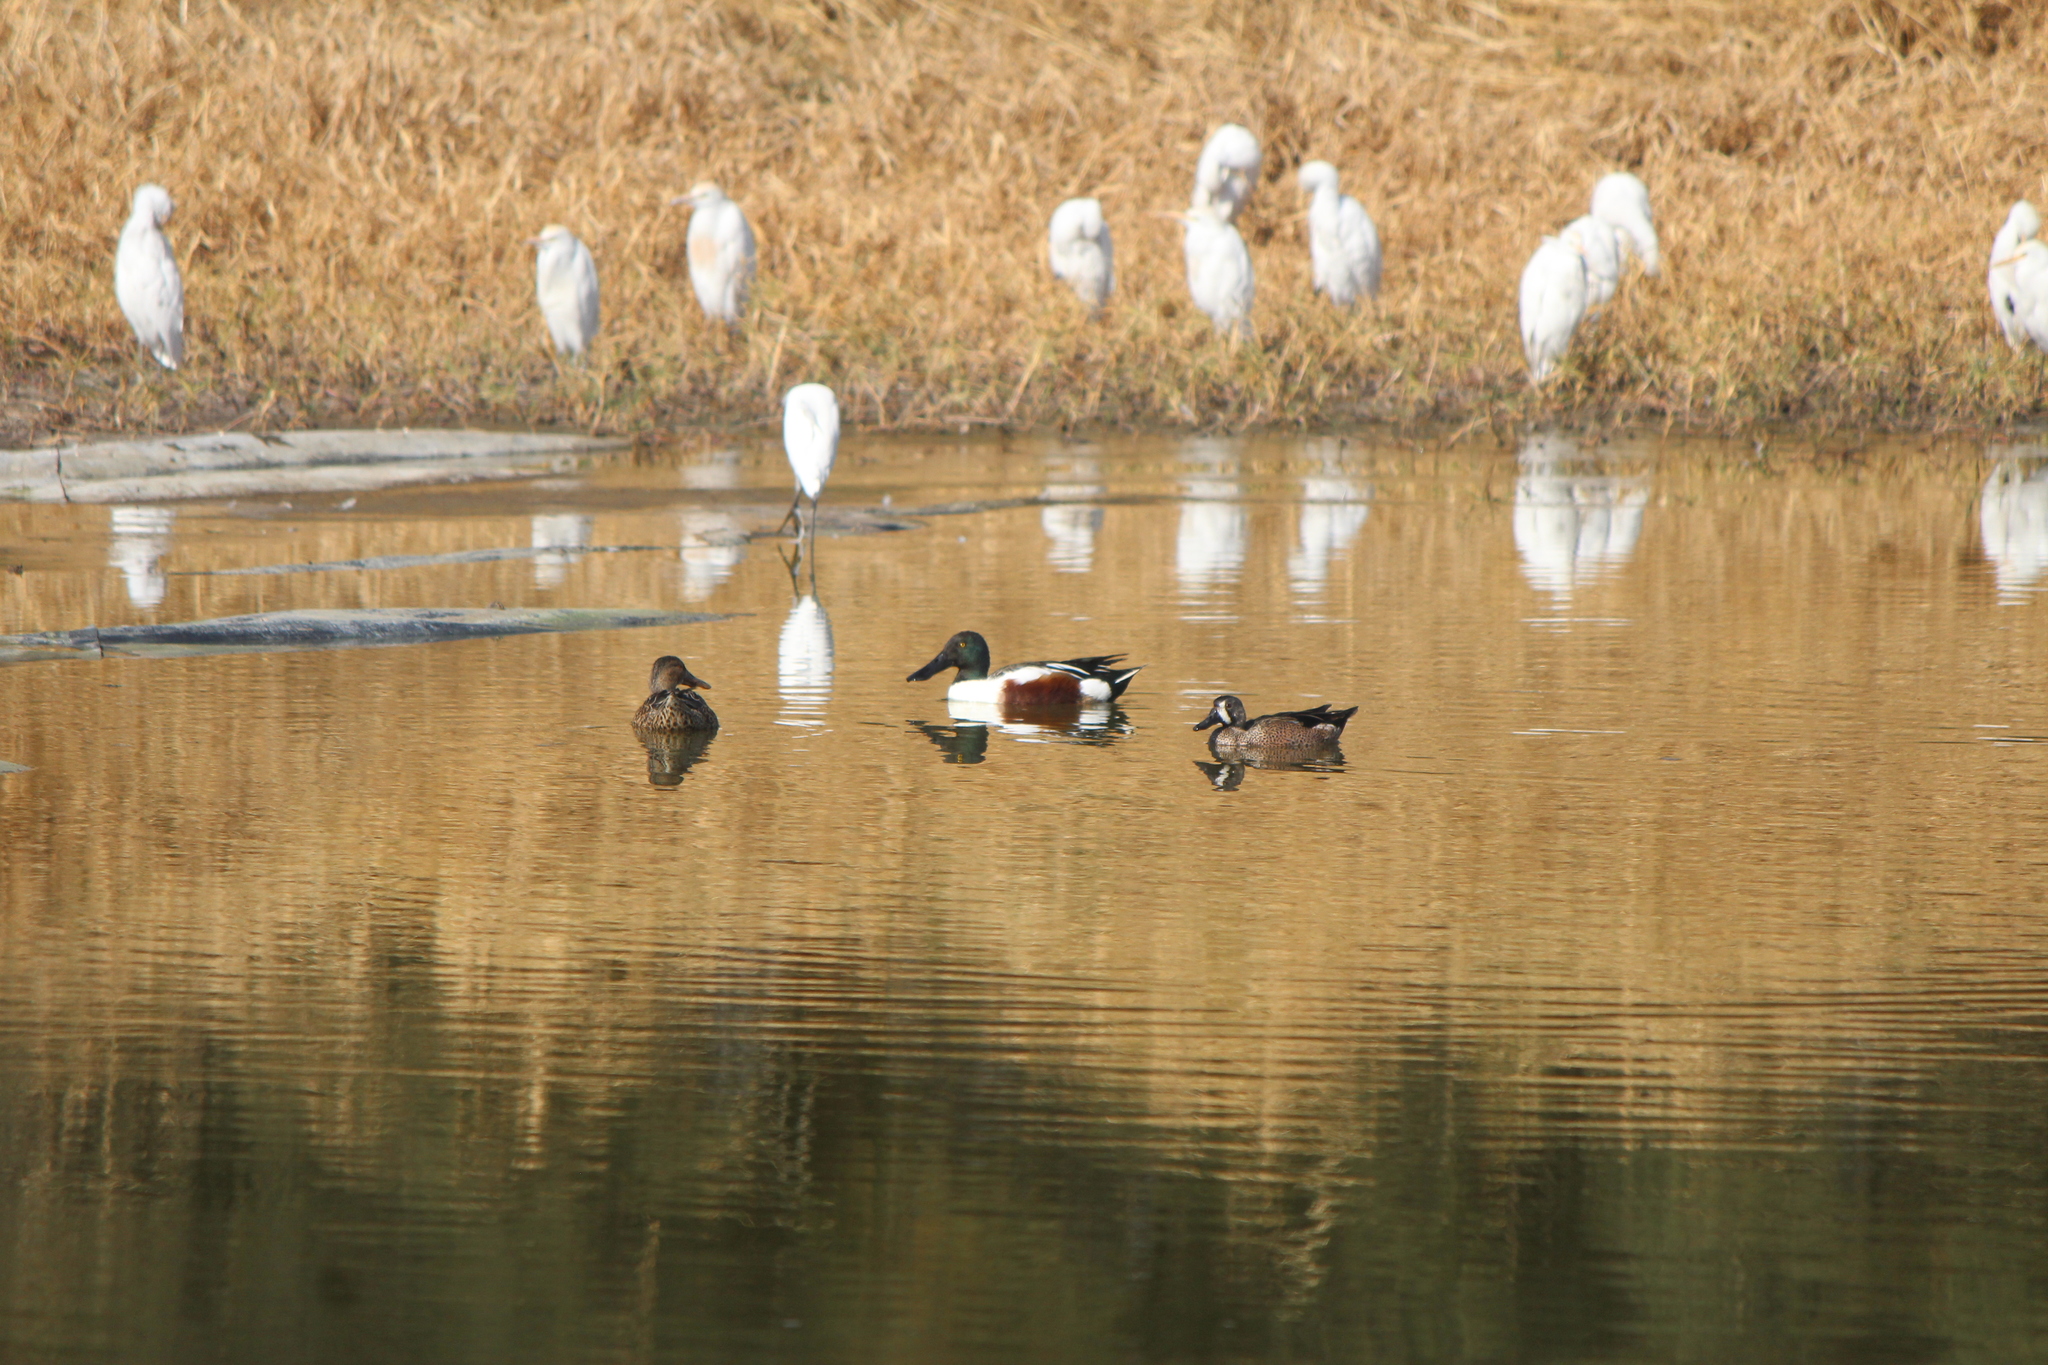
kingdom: Animalia
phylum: Chordata
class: Aves
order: Anseriformes
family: Anatidae
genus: Spatula
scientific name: Spatula discors
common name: Blue-winged teal
